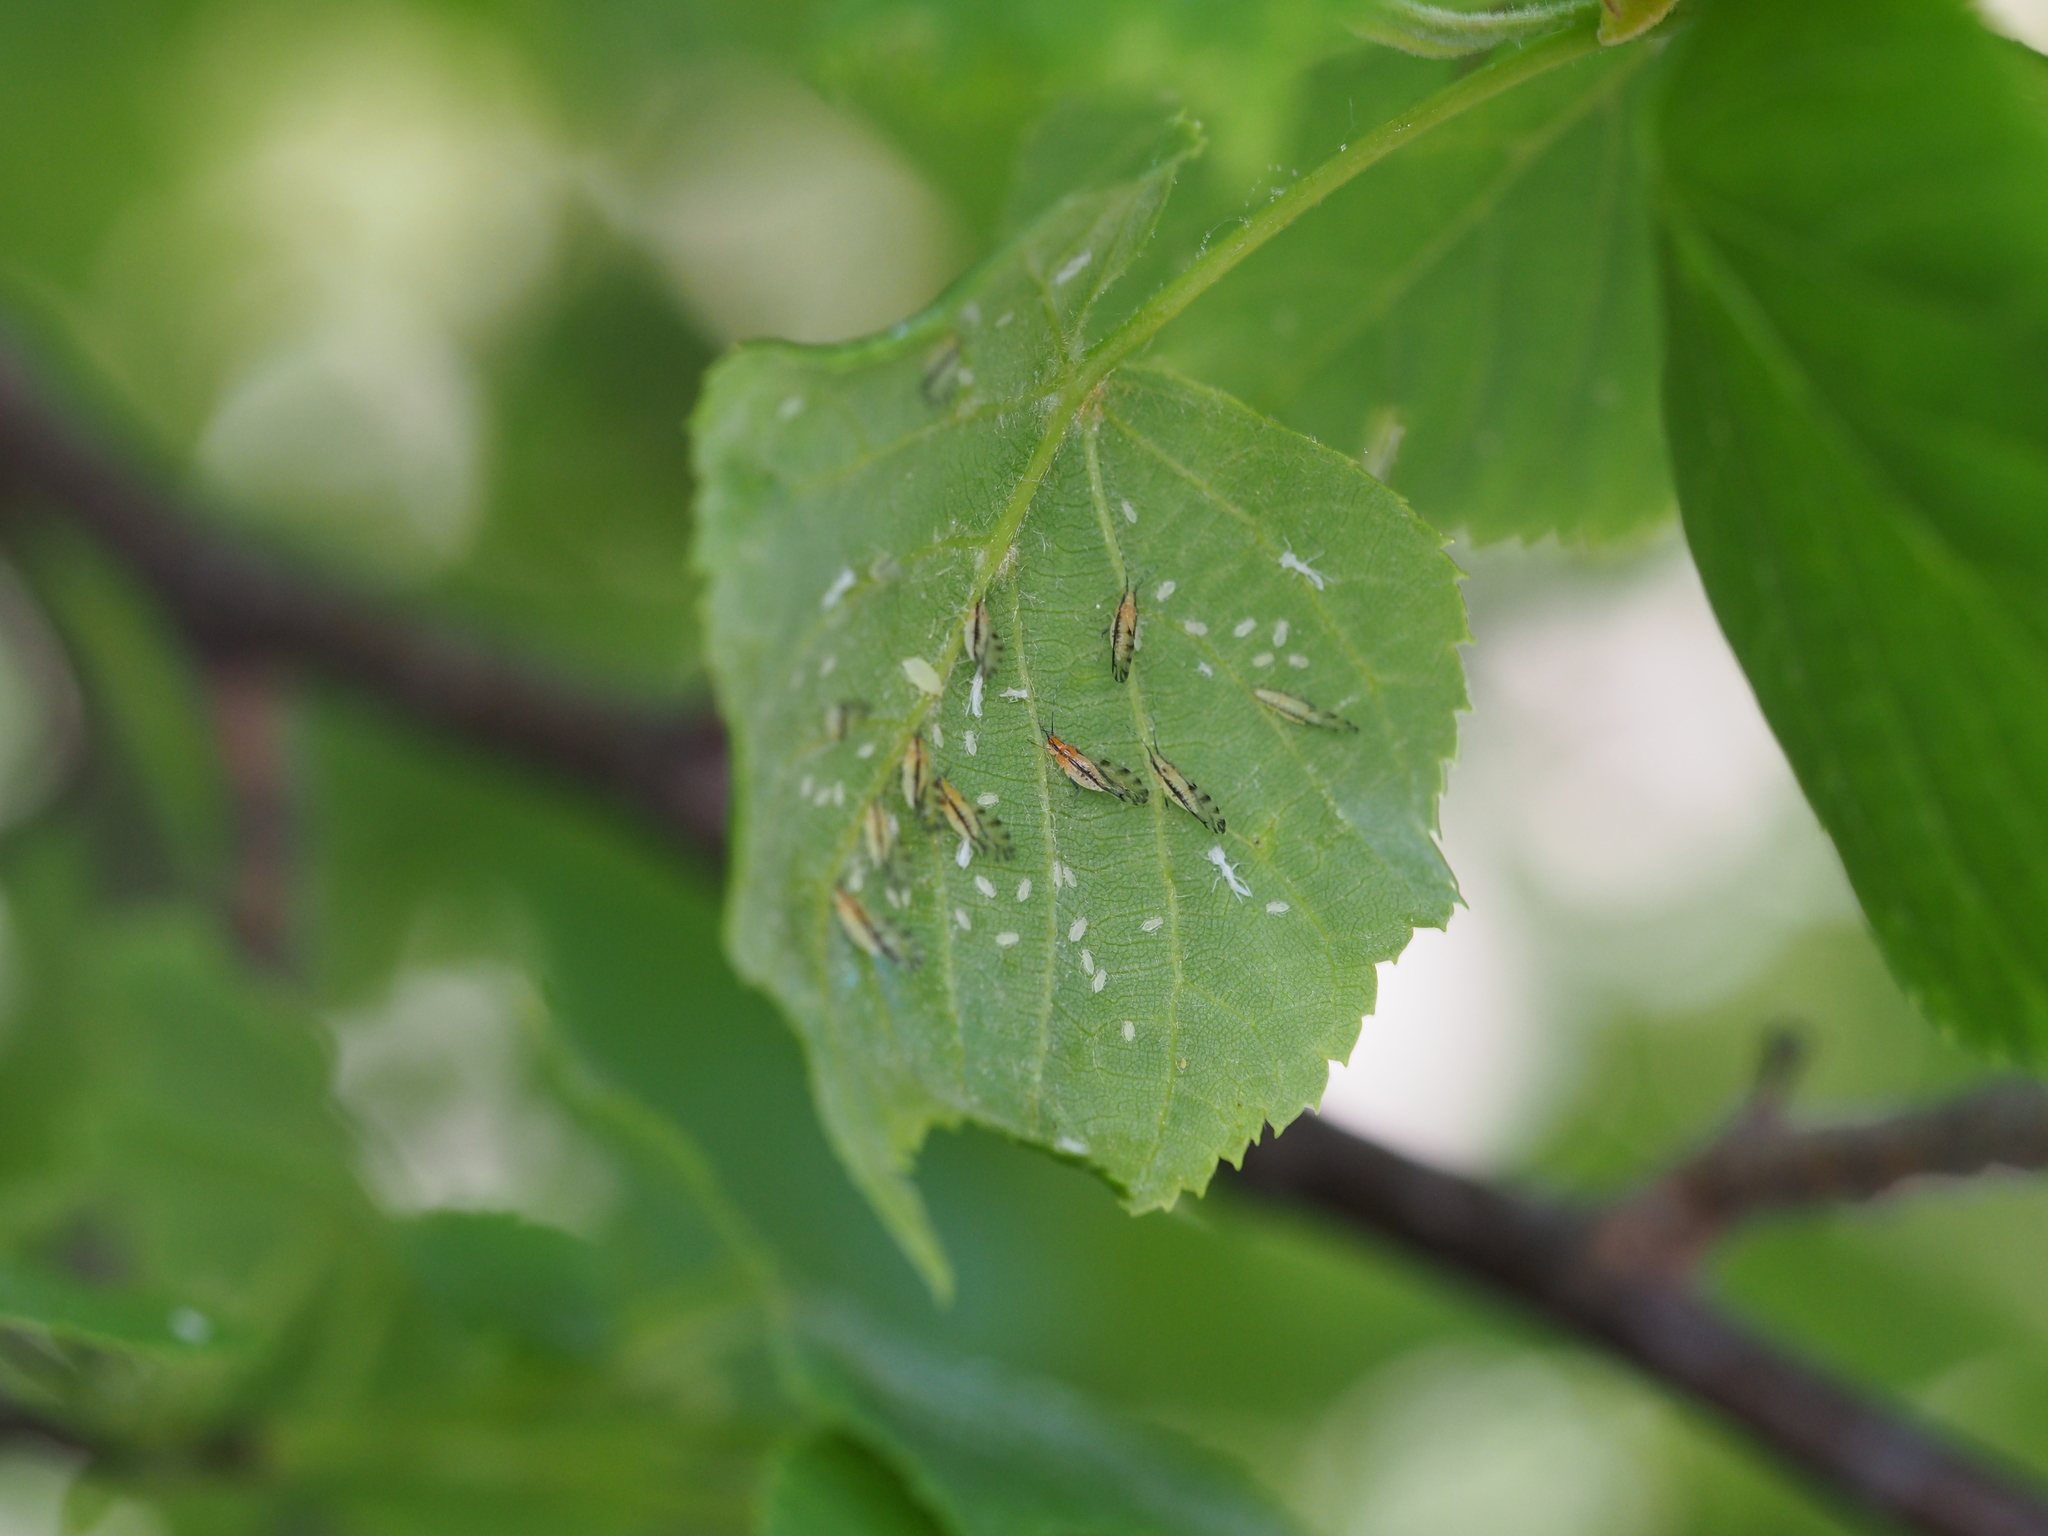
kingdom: Animalia
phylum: Arthropoda
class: Insecta
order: Hemiptera
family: Aphididae
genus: Eucallipterus
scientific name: Eucallipterus tiliae
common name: Aphid
